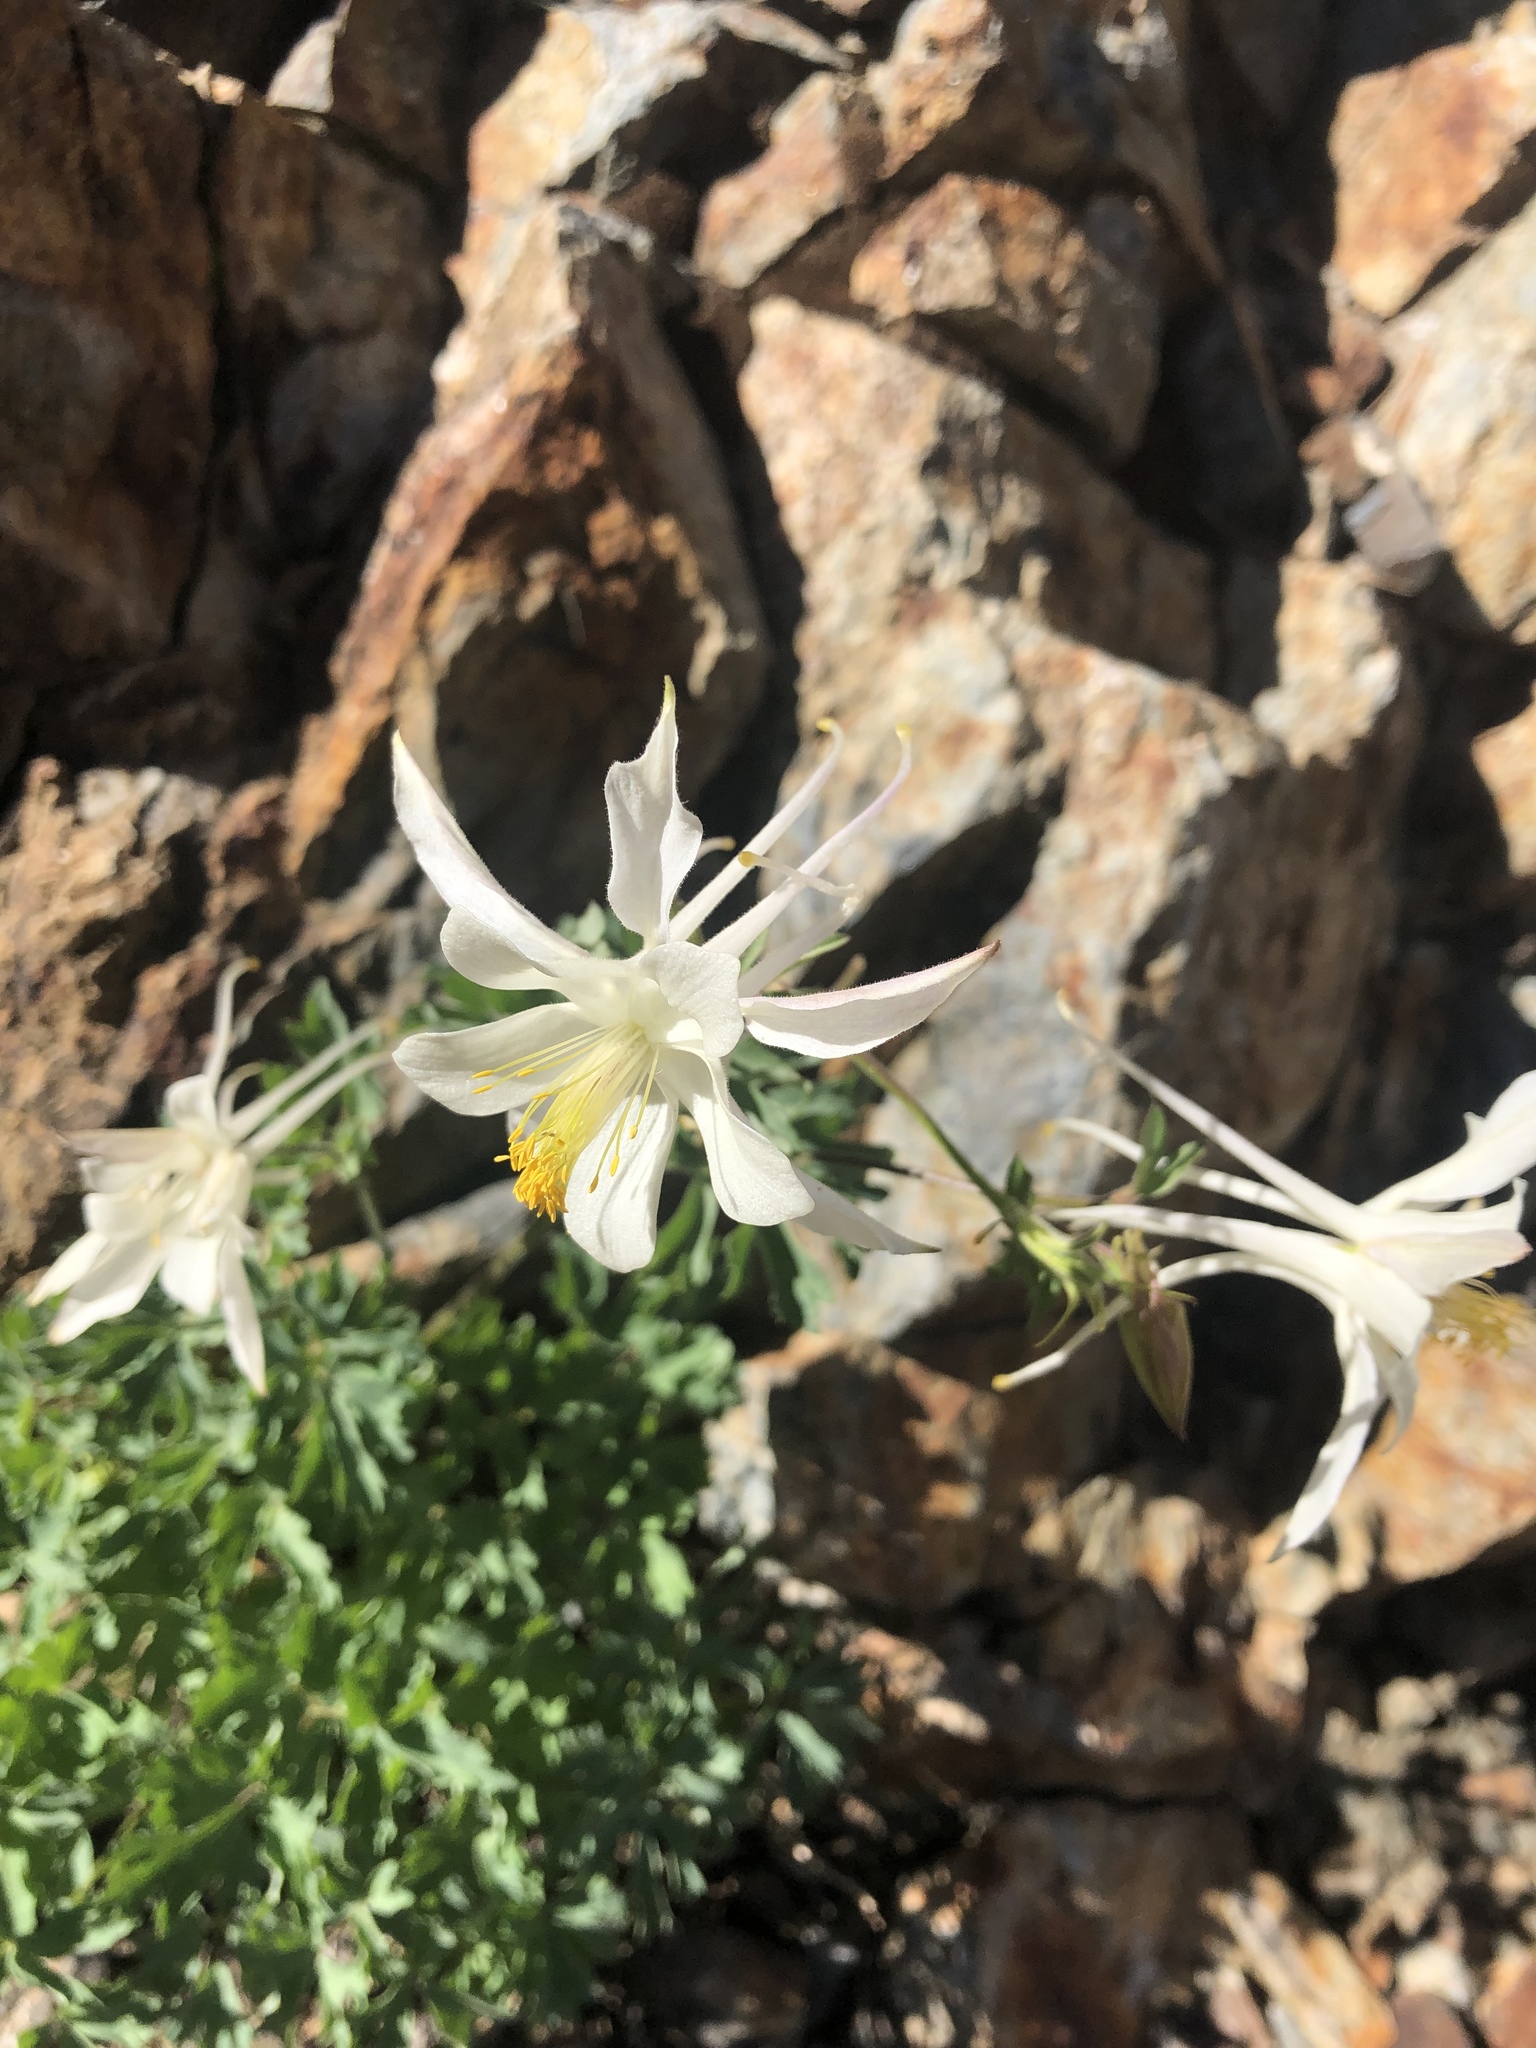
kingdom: Plantae
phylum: Tracheophyta
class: Magnoliopsida
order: Ranunculales
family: Ranunculaceae
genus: Aquilegia
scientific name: Aquilegia pubescens
